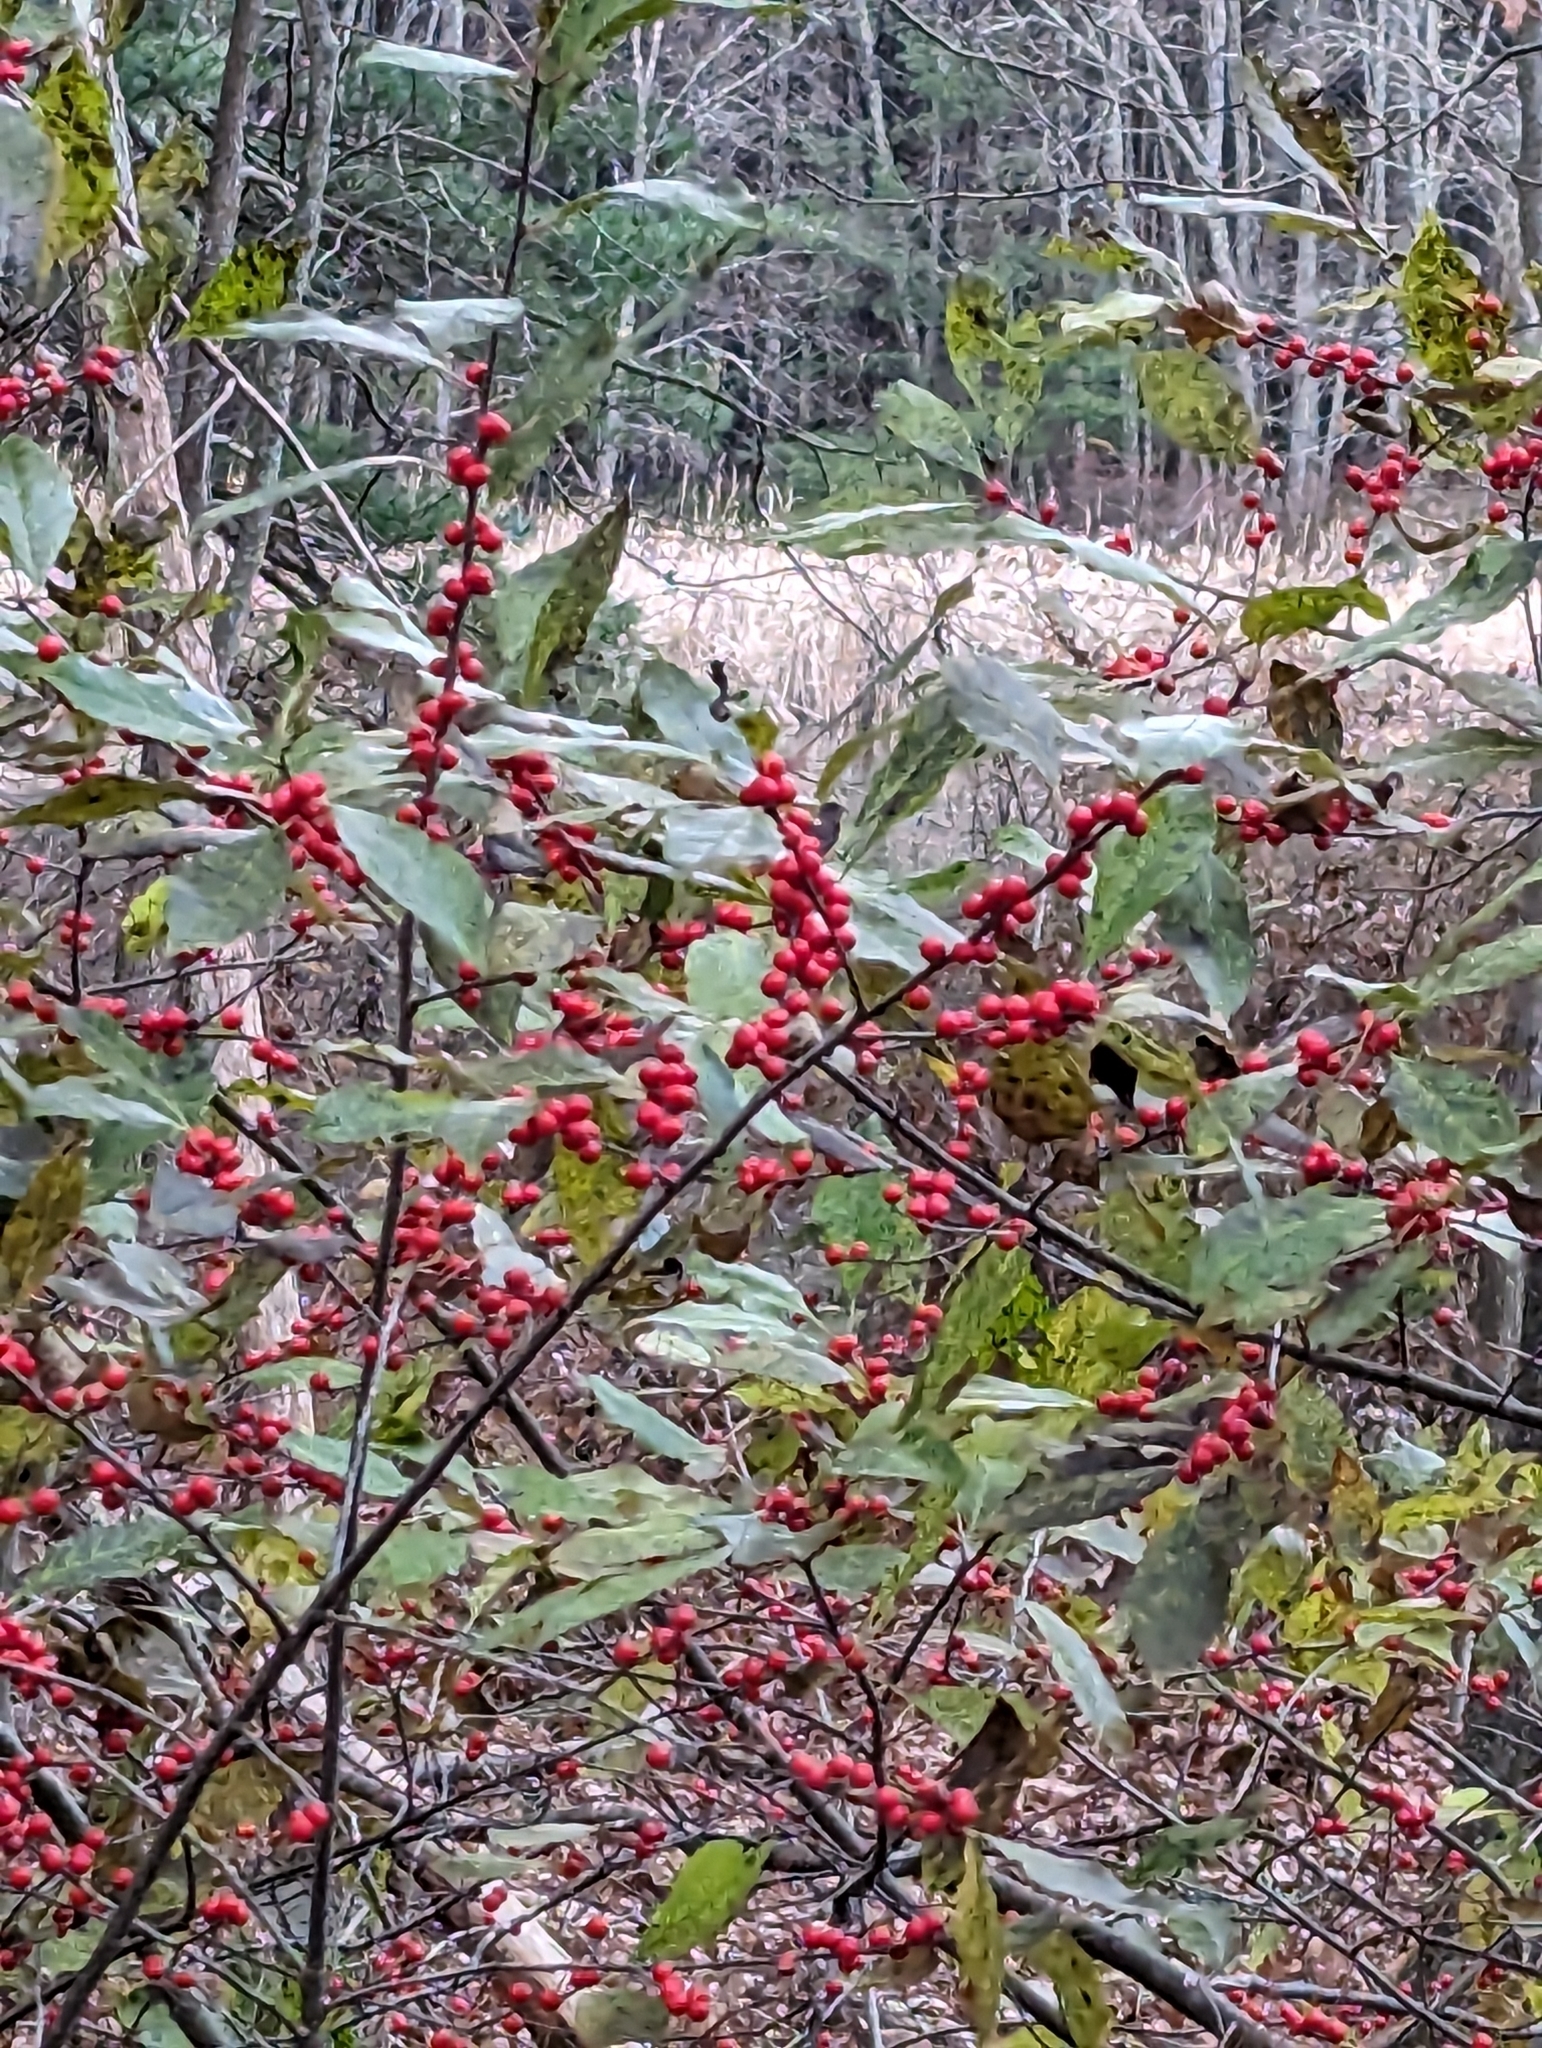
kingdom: Plantae
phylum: Tracheophyta
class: Magnoliopsida
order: Aquifoliales
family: Aquifoliaceae
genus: Ilex
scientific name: Ilex verticillata
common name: Virginia winterberry
